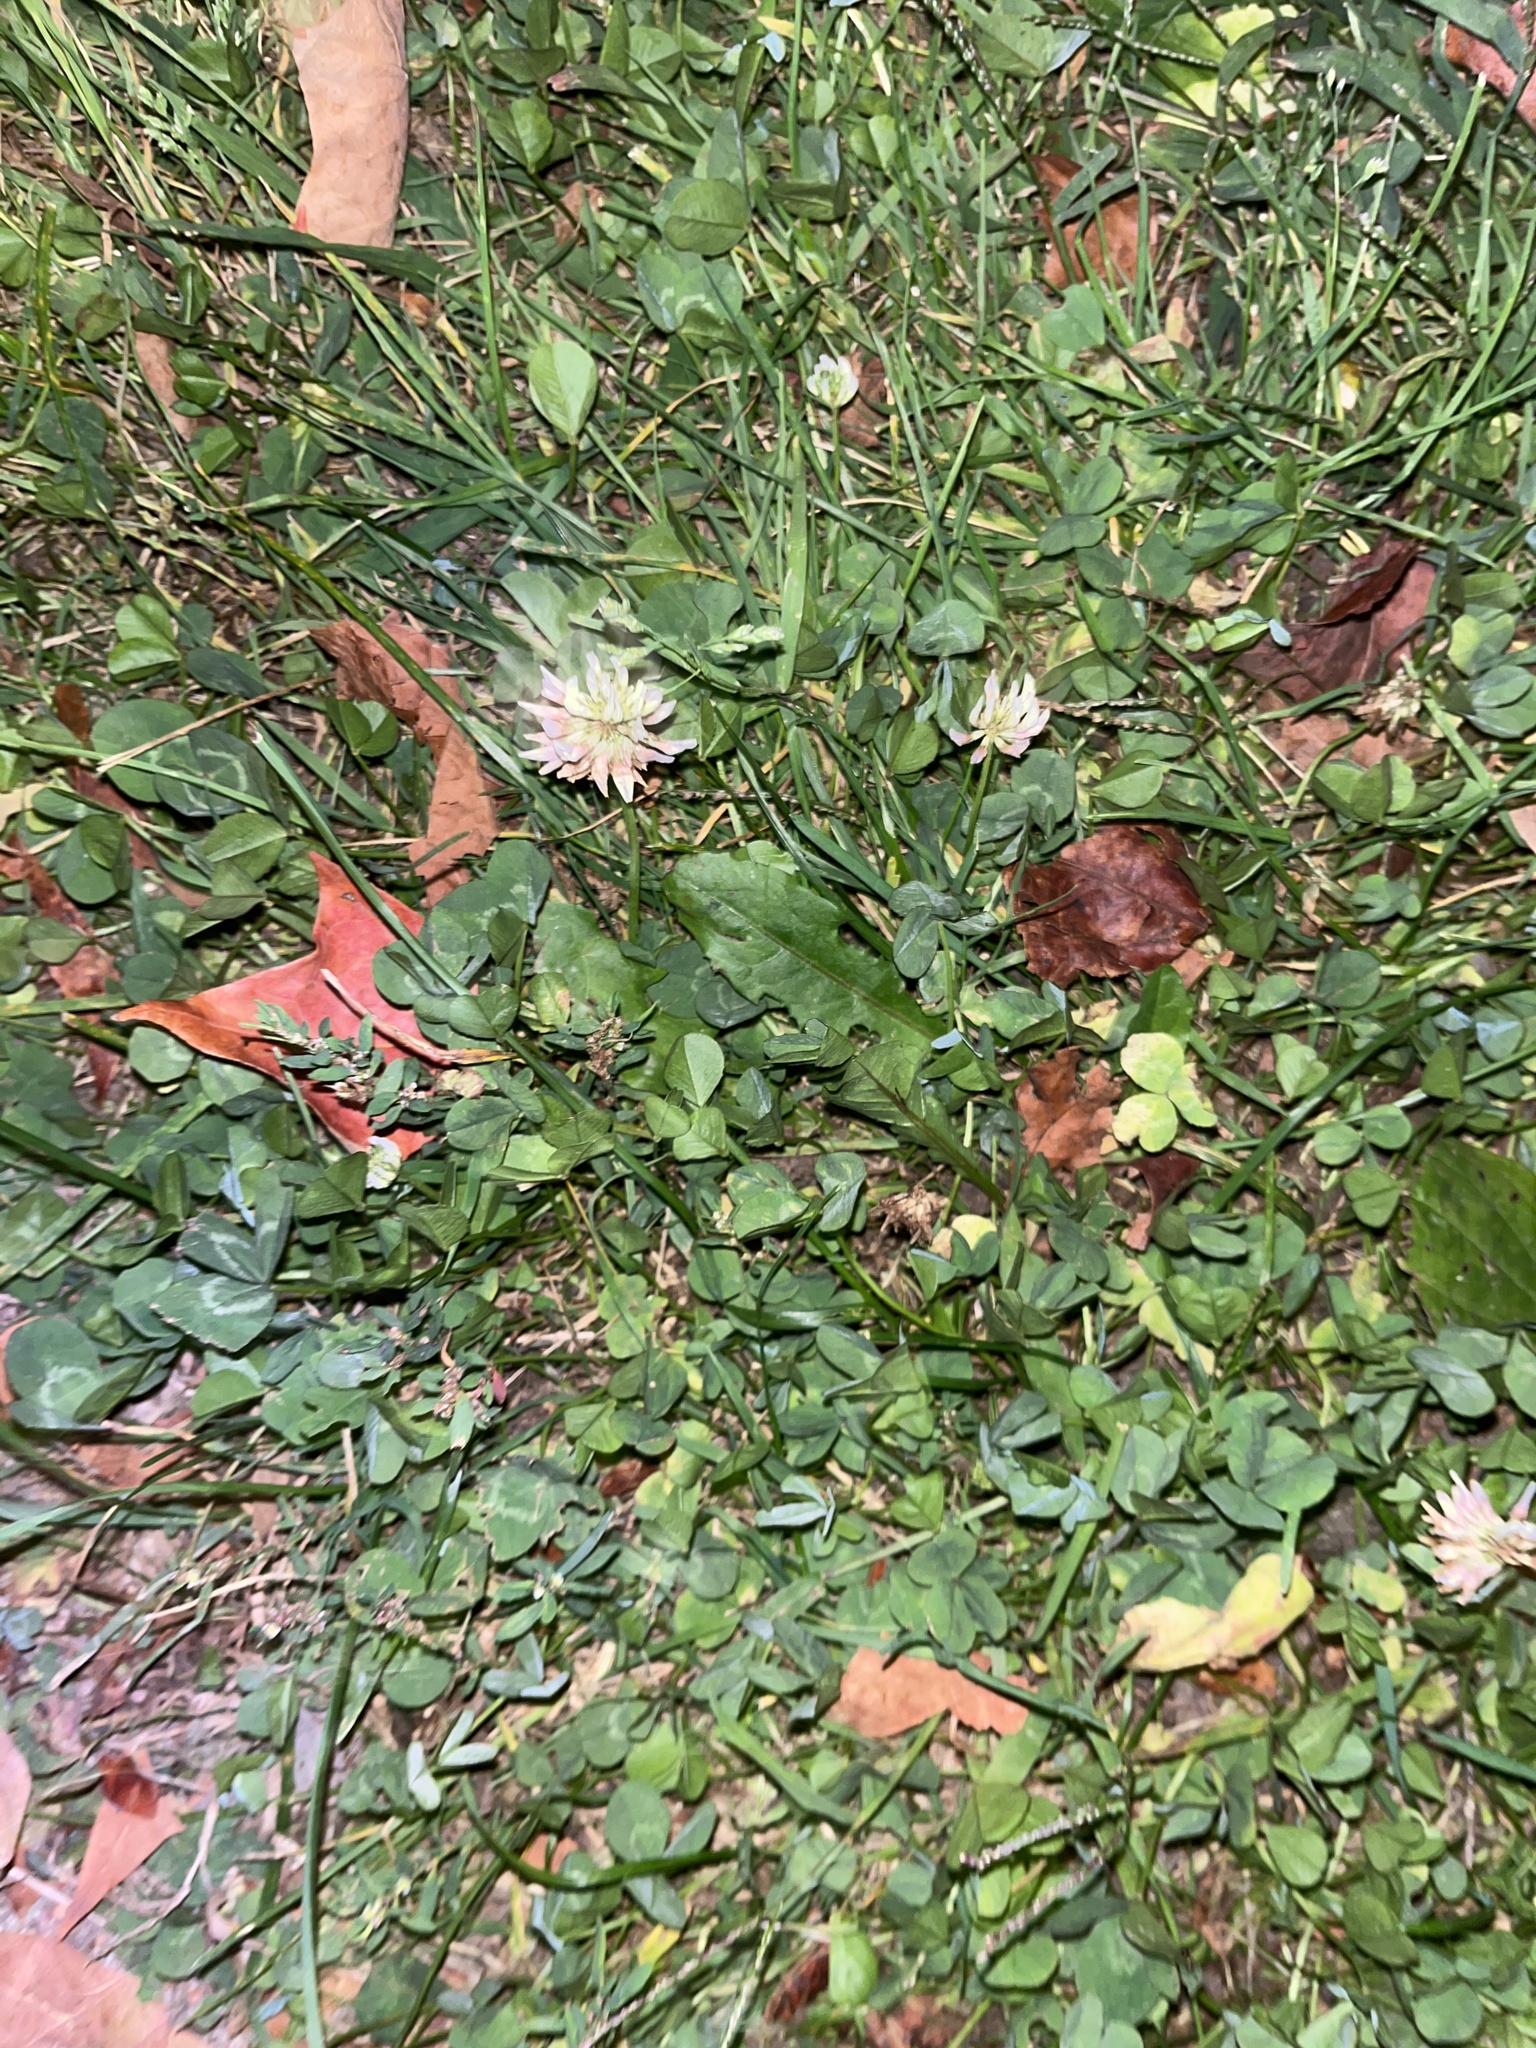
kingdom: Plantae
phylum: Tracheophyta
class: Magnoliopsida
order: Fabales
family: Fabaceae
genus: Trifolium
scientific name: Trifolium repens
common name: White clover
